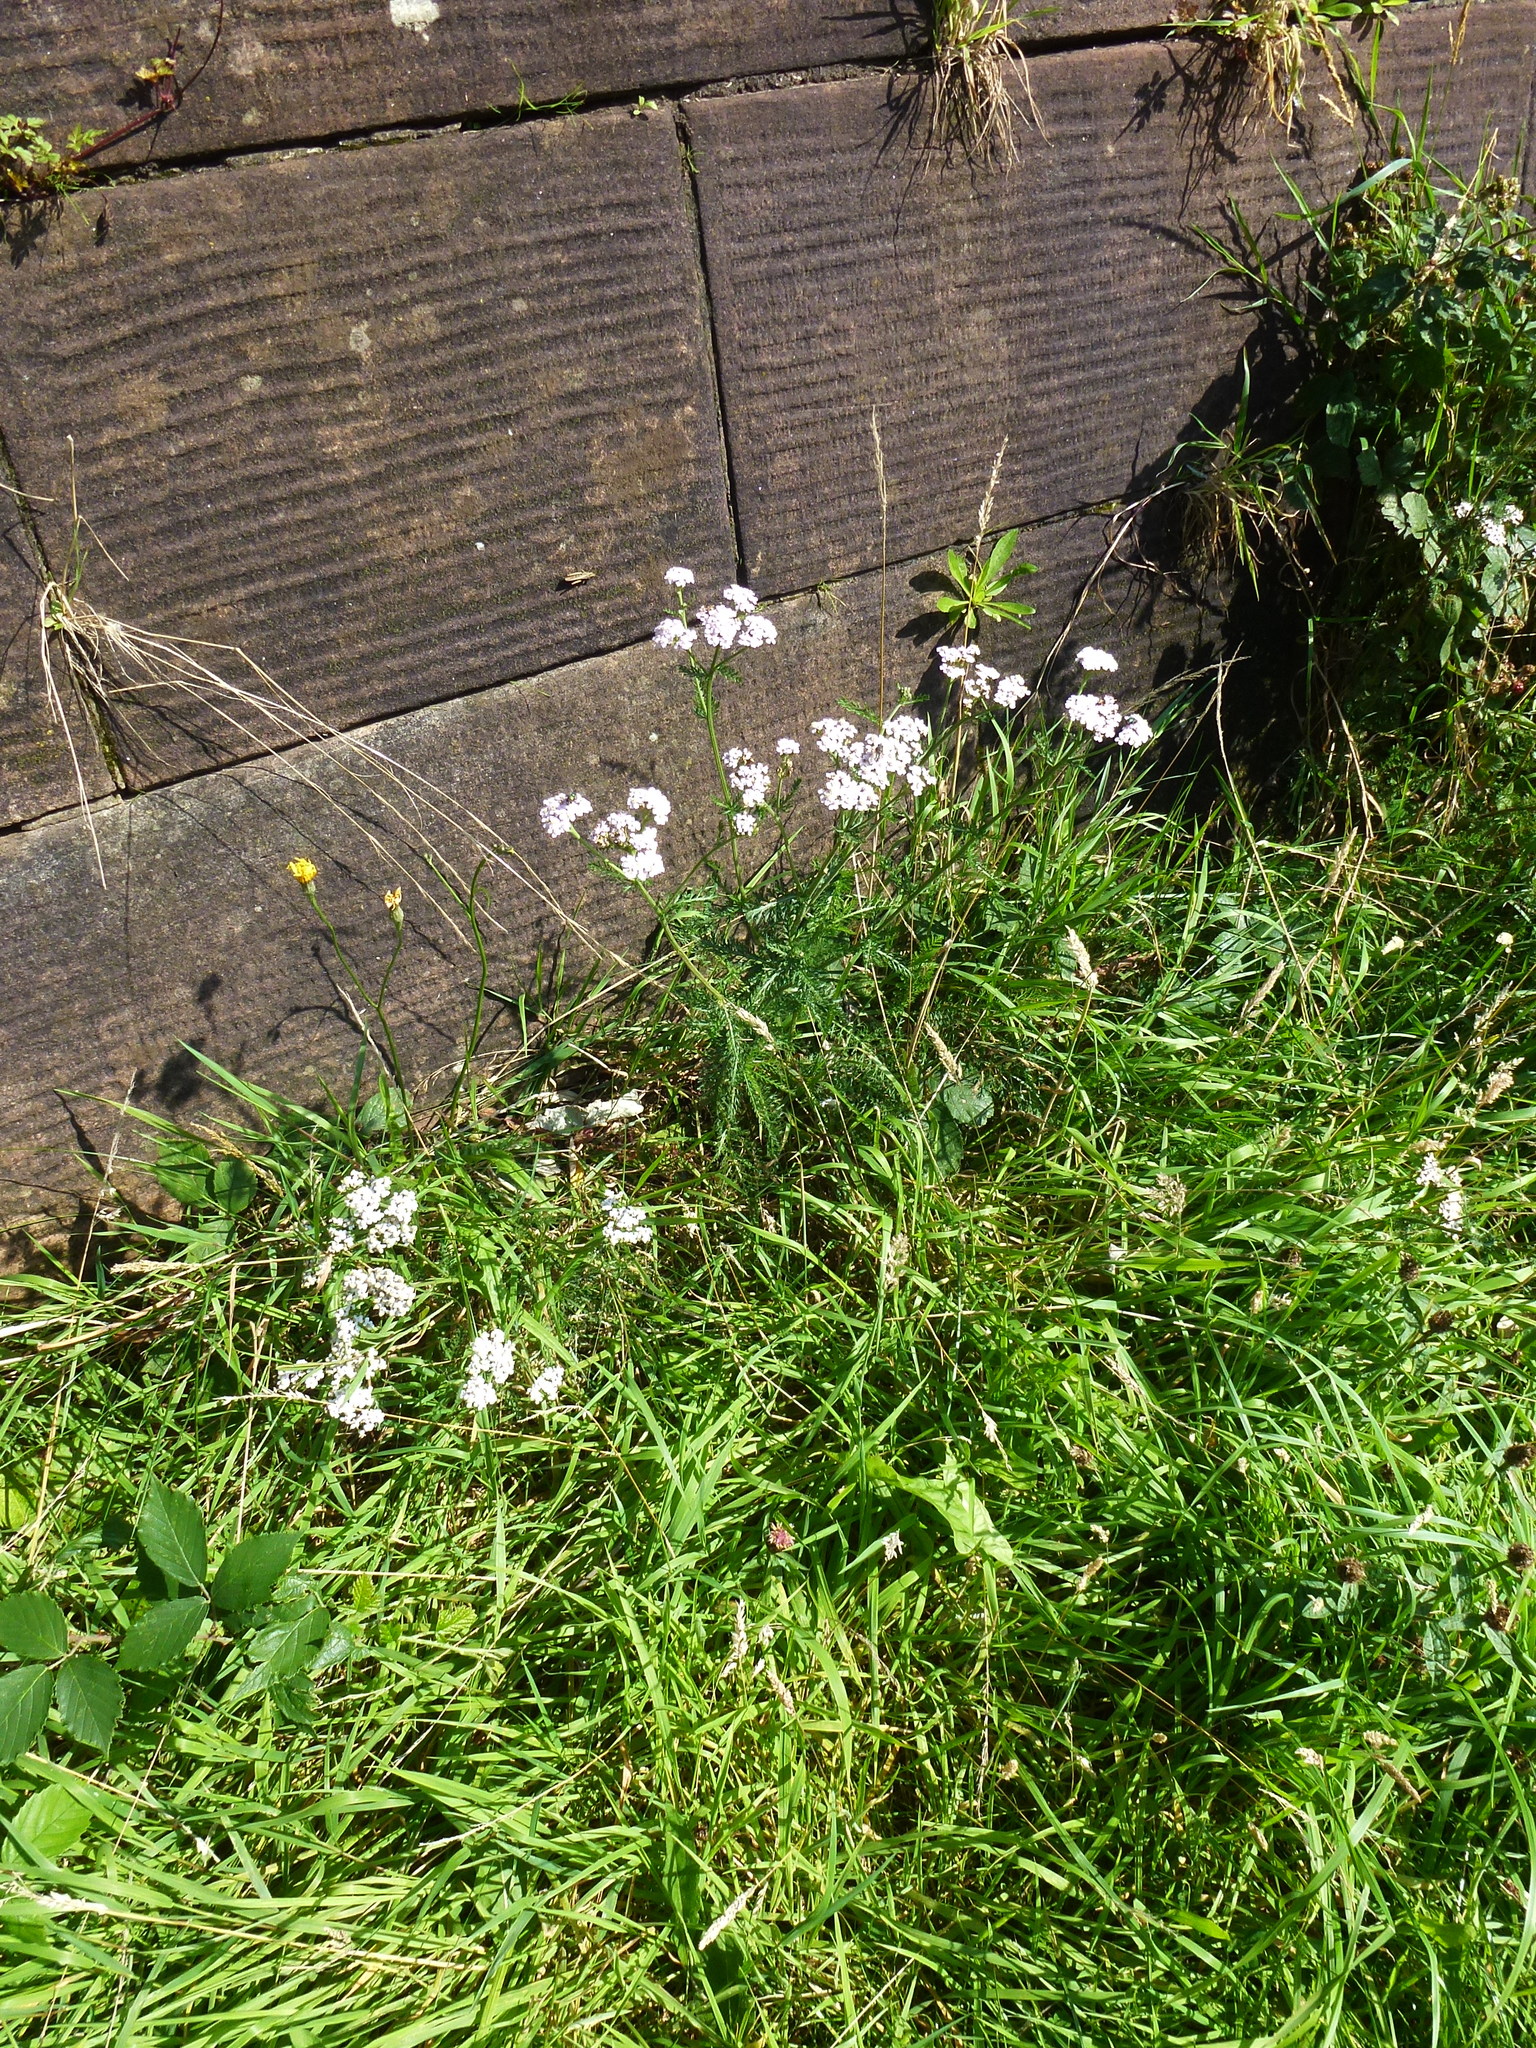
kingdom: Plantae
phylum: Tracheophyta
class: Magnoliopsida
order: Asterales
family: Asteraceae
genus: Achillea
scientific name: Achillea millefolium
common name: Yarrow
